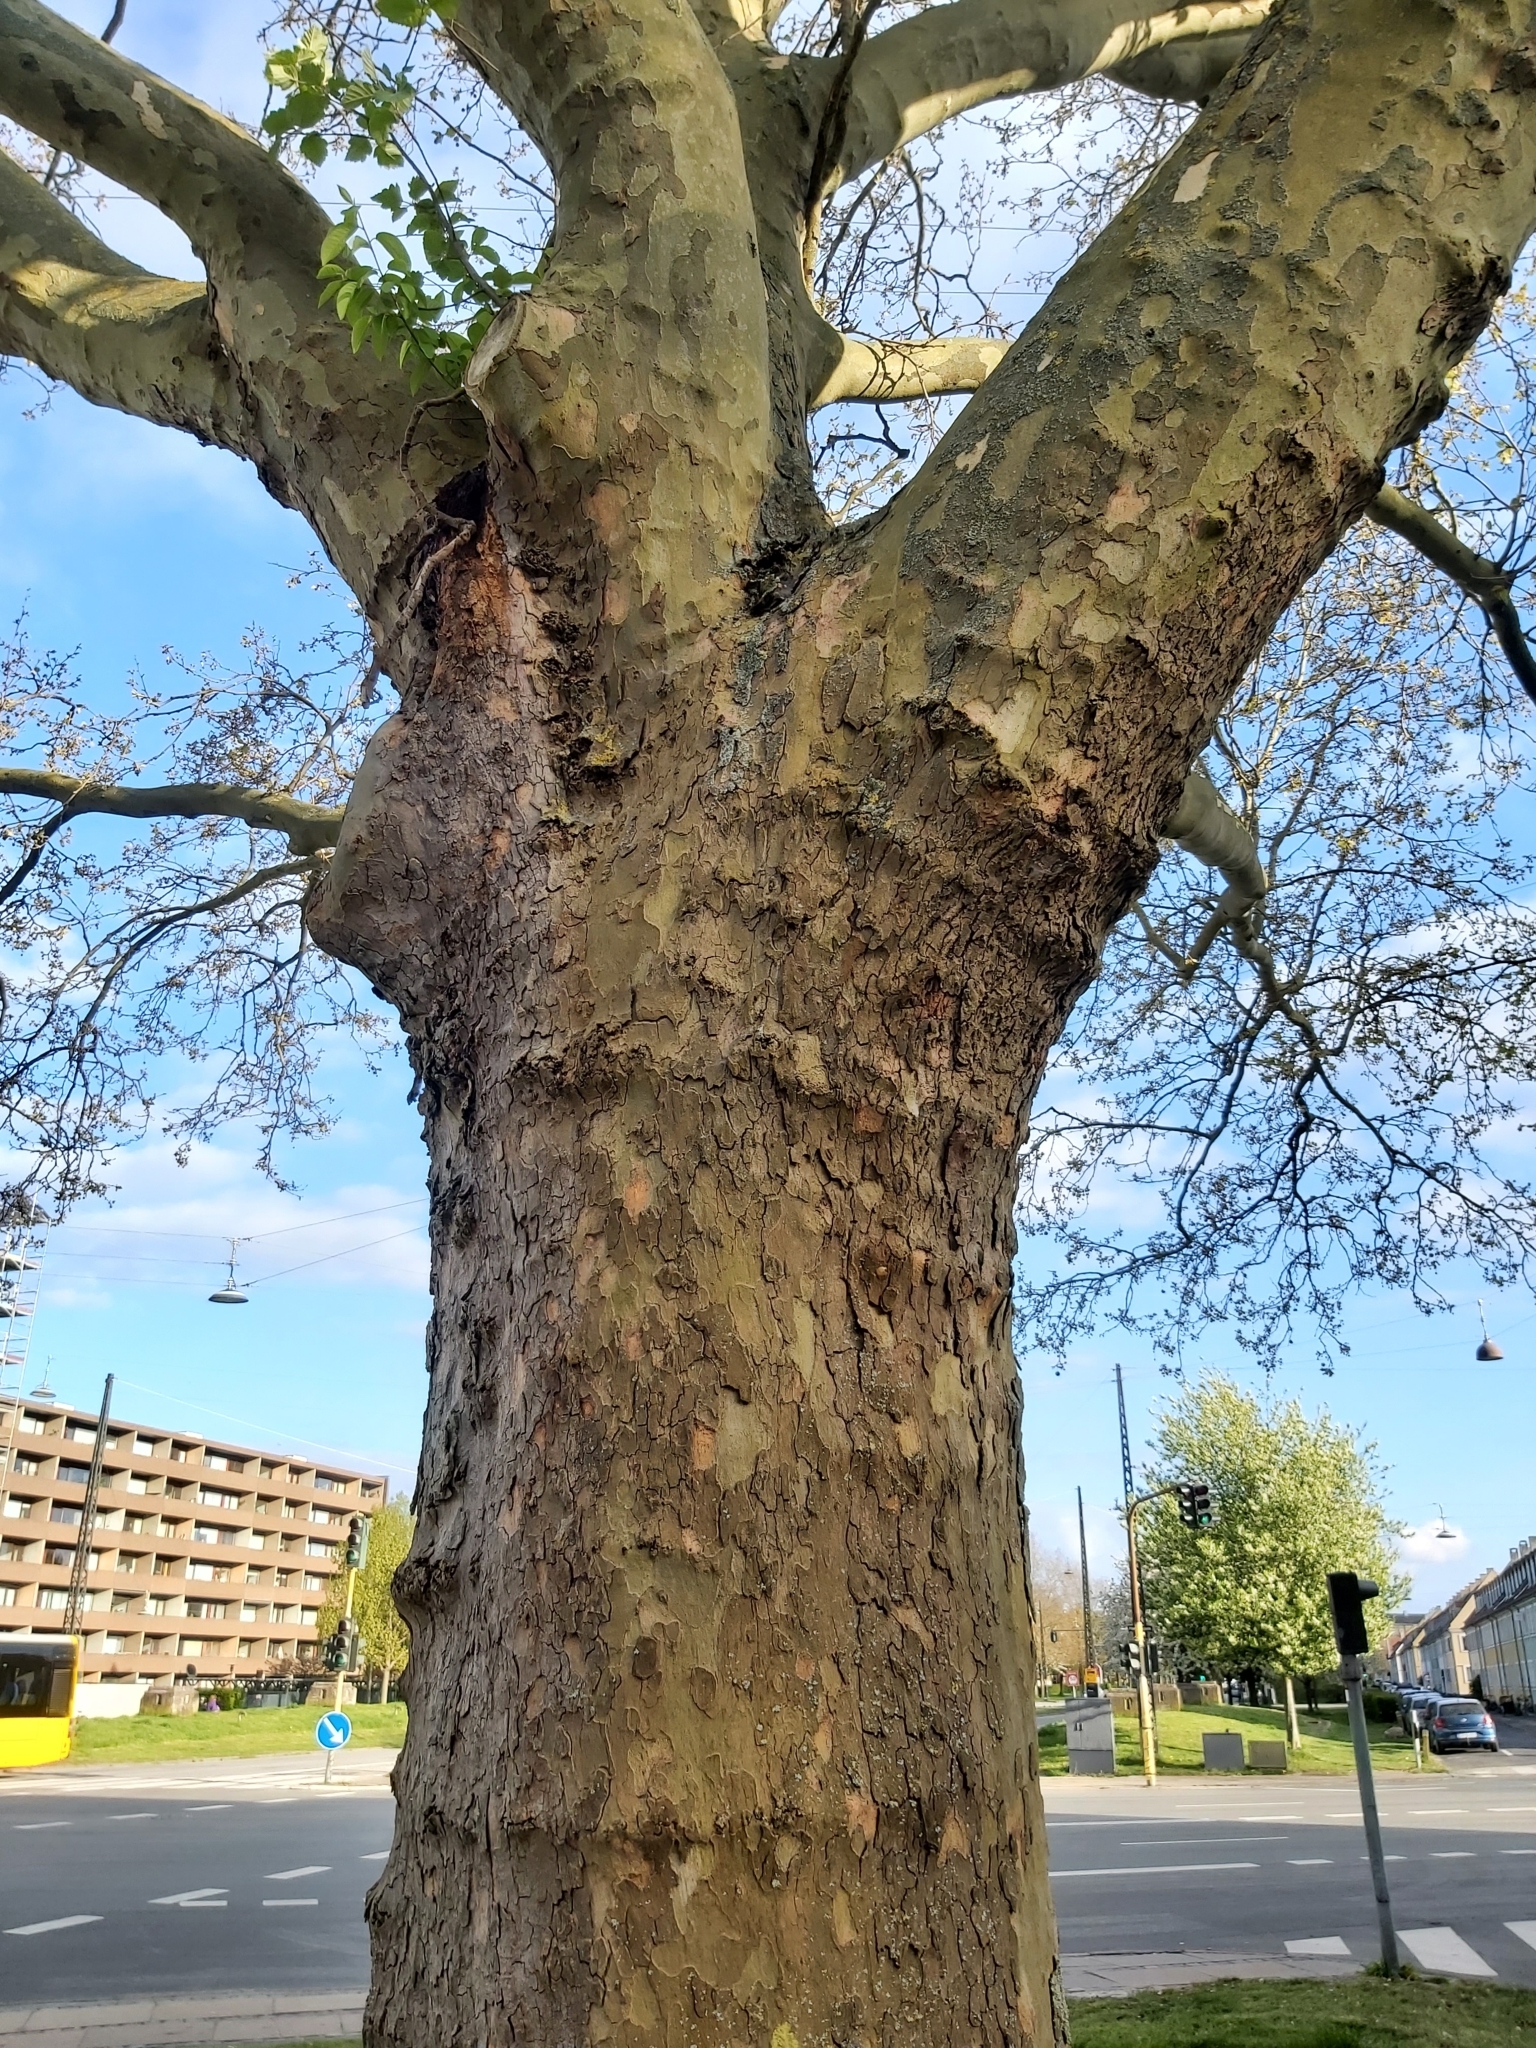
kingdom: Plantae
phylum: Tracheophyta
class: Magnoliopsida
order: Proteales
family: Platanaceae
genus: Platanus
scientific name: Platanus hispanica
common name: London plane
